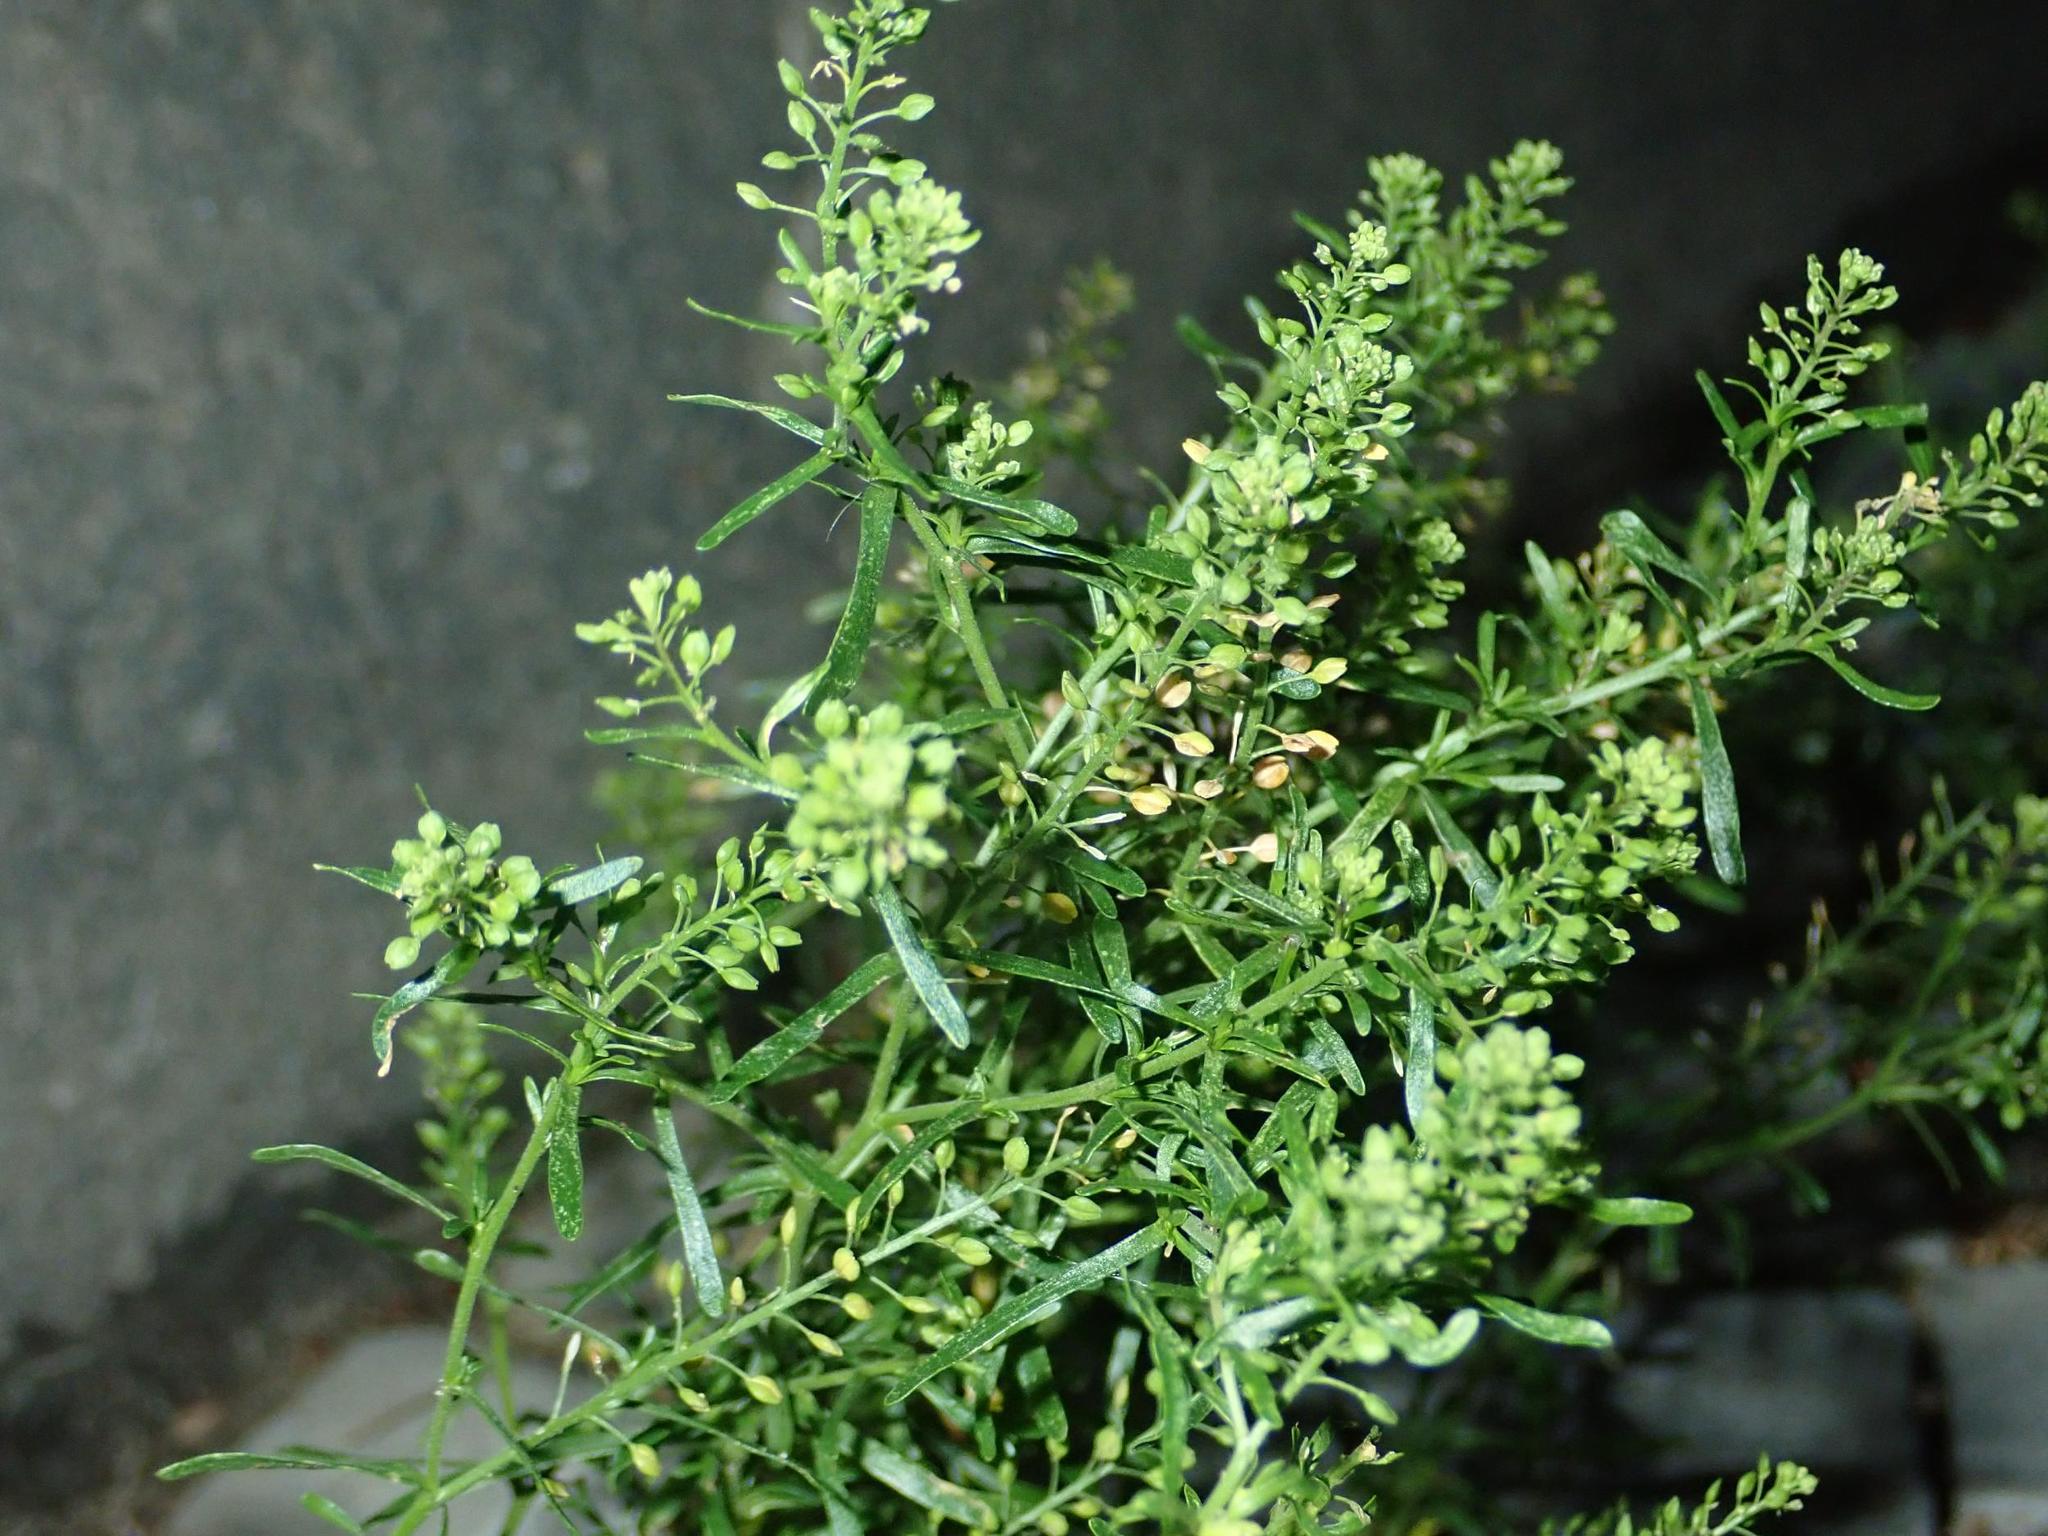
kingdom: Plantae
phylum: Tracheophyta
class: Magnoliopsida
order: Brassicales
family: Brassicaceae
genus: Lepidium
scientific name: Lepidium ruderale
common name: Narrow-leaved pepperwort
